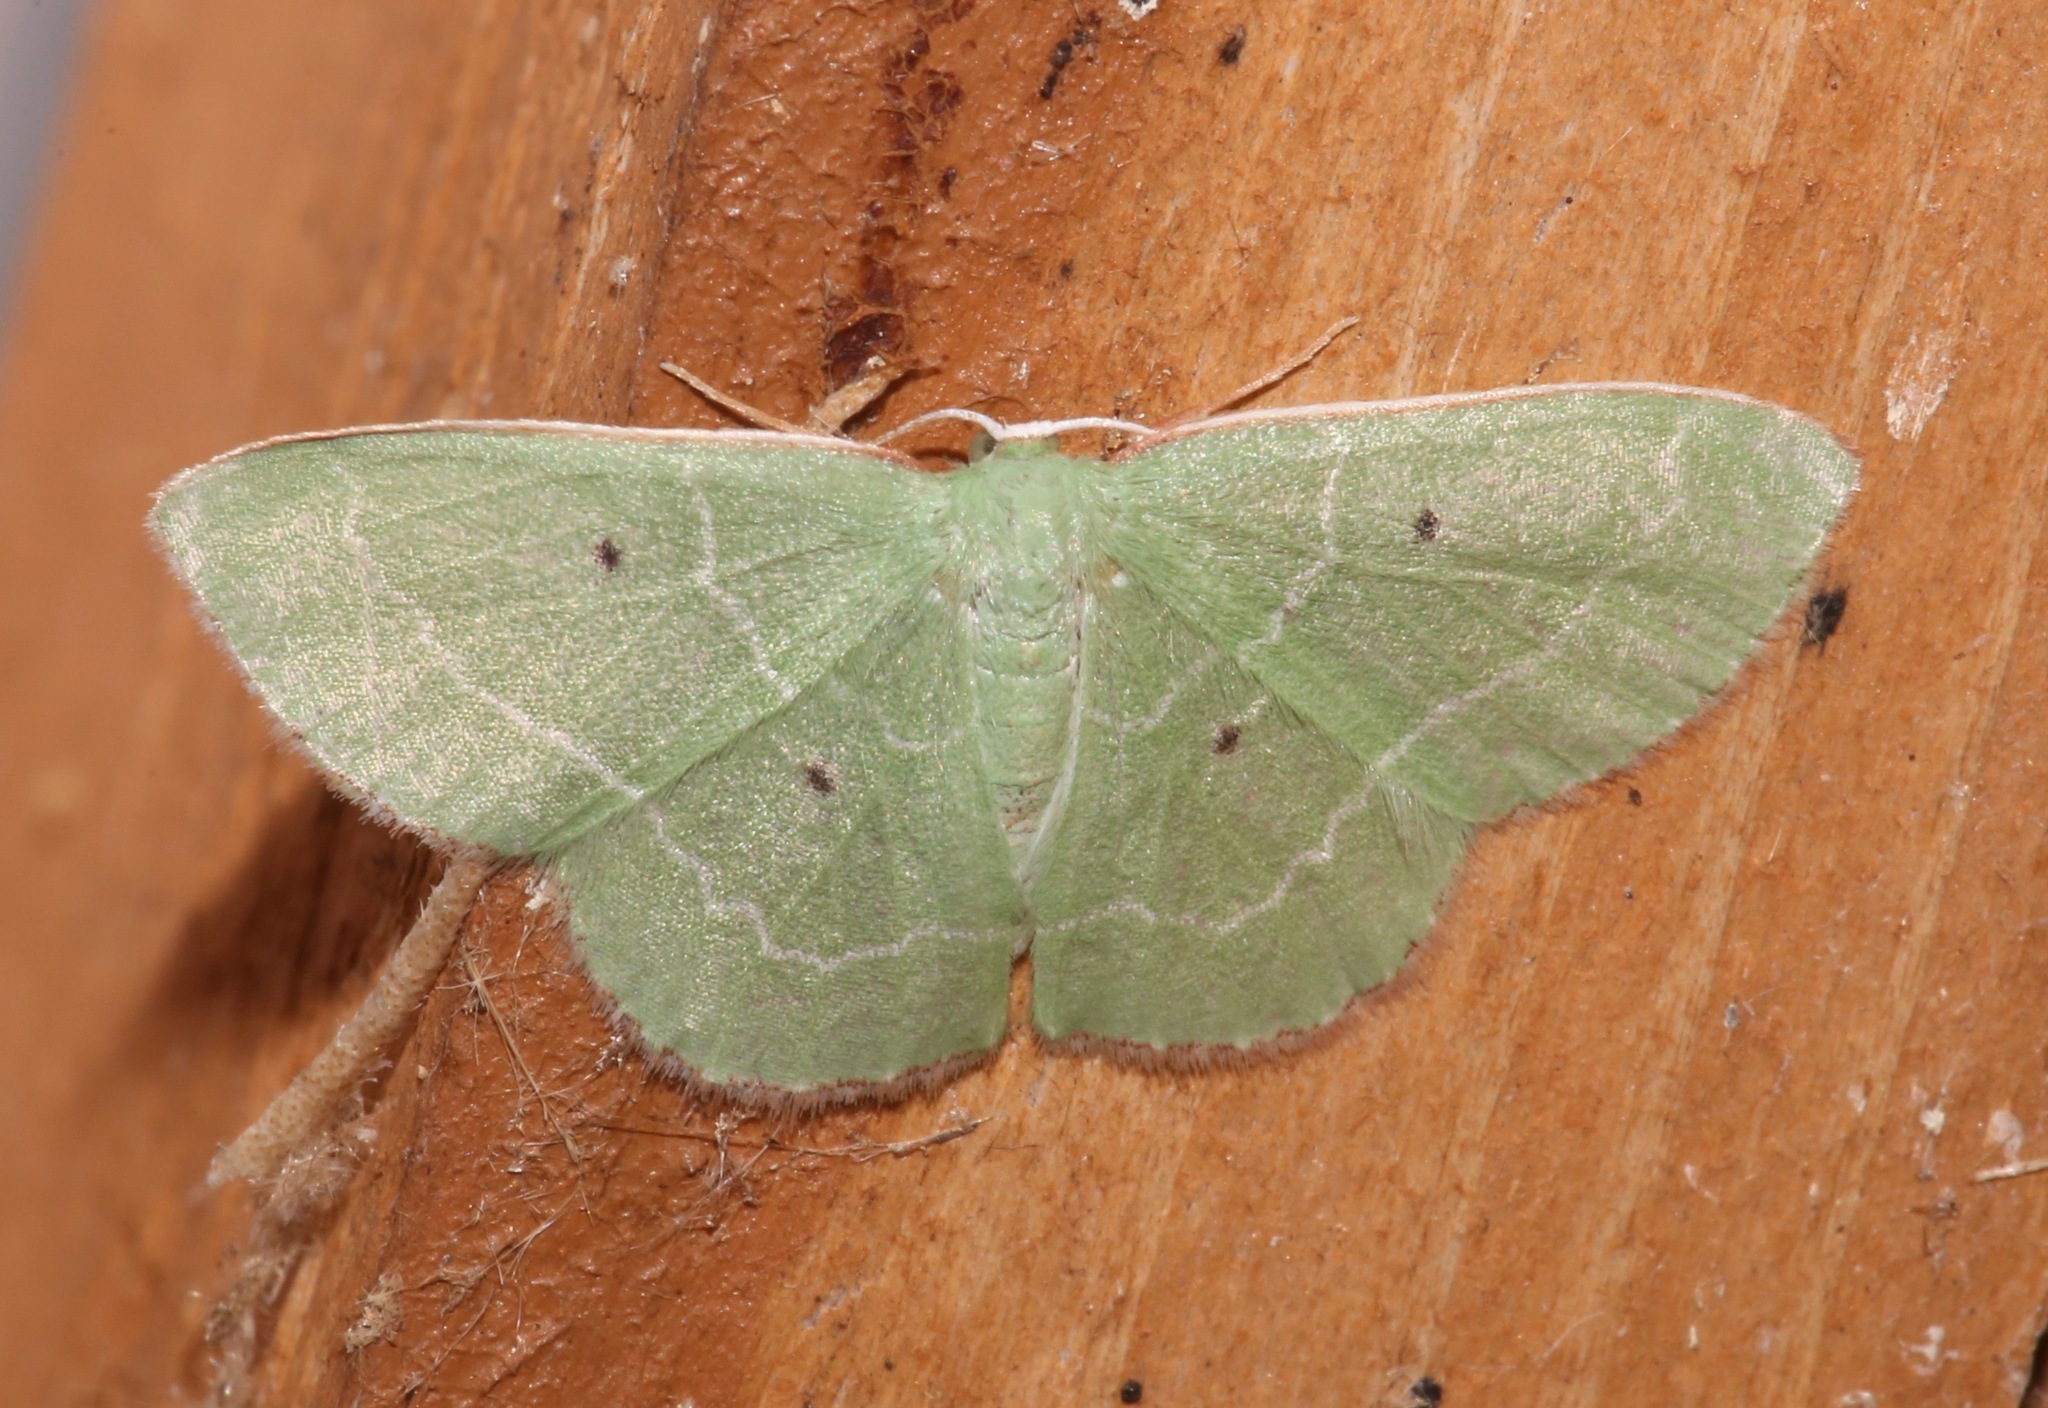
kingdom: Animalia
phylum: Arthropoda
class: Insecta
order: Lepidoptera
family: Geometridae
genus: Nemoria
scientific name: Nemoria elfa
